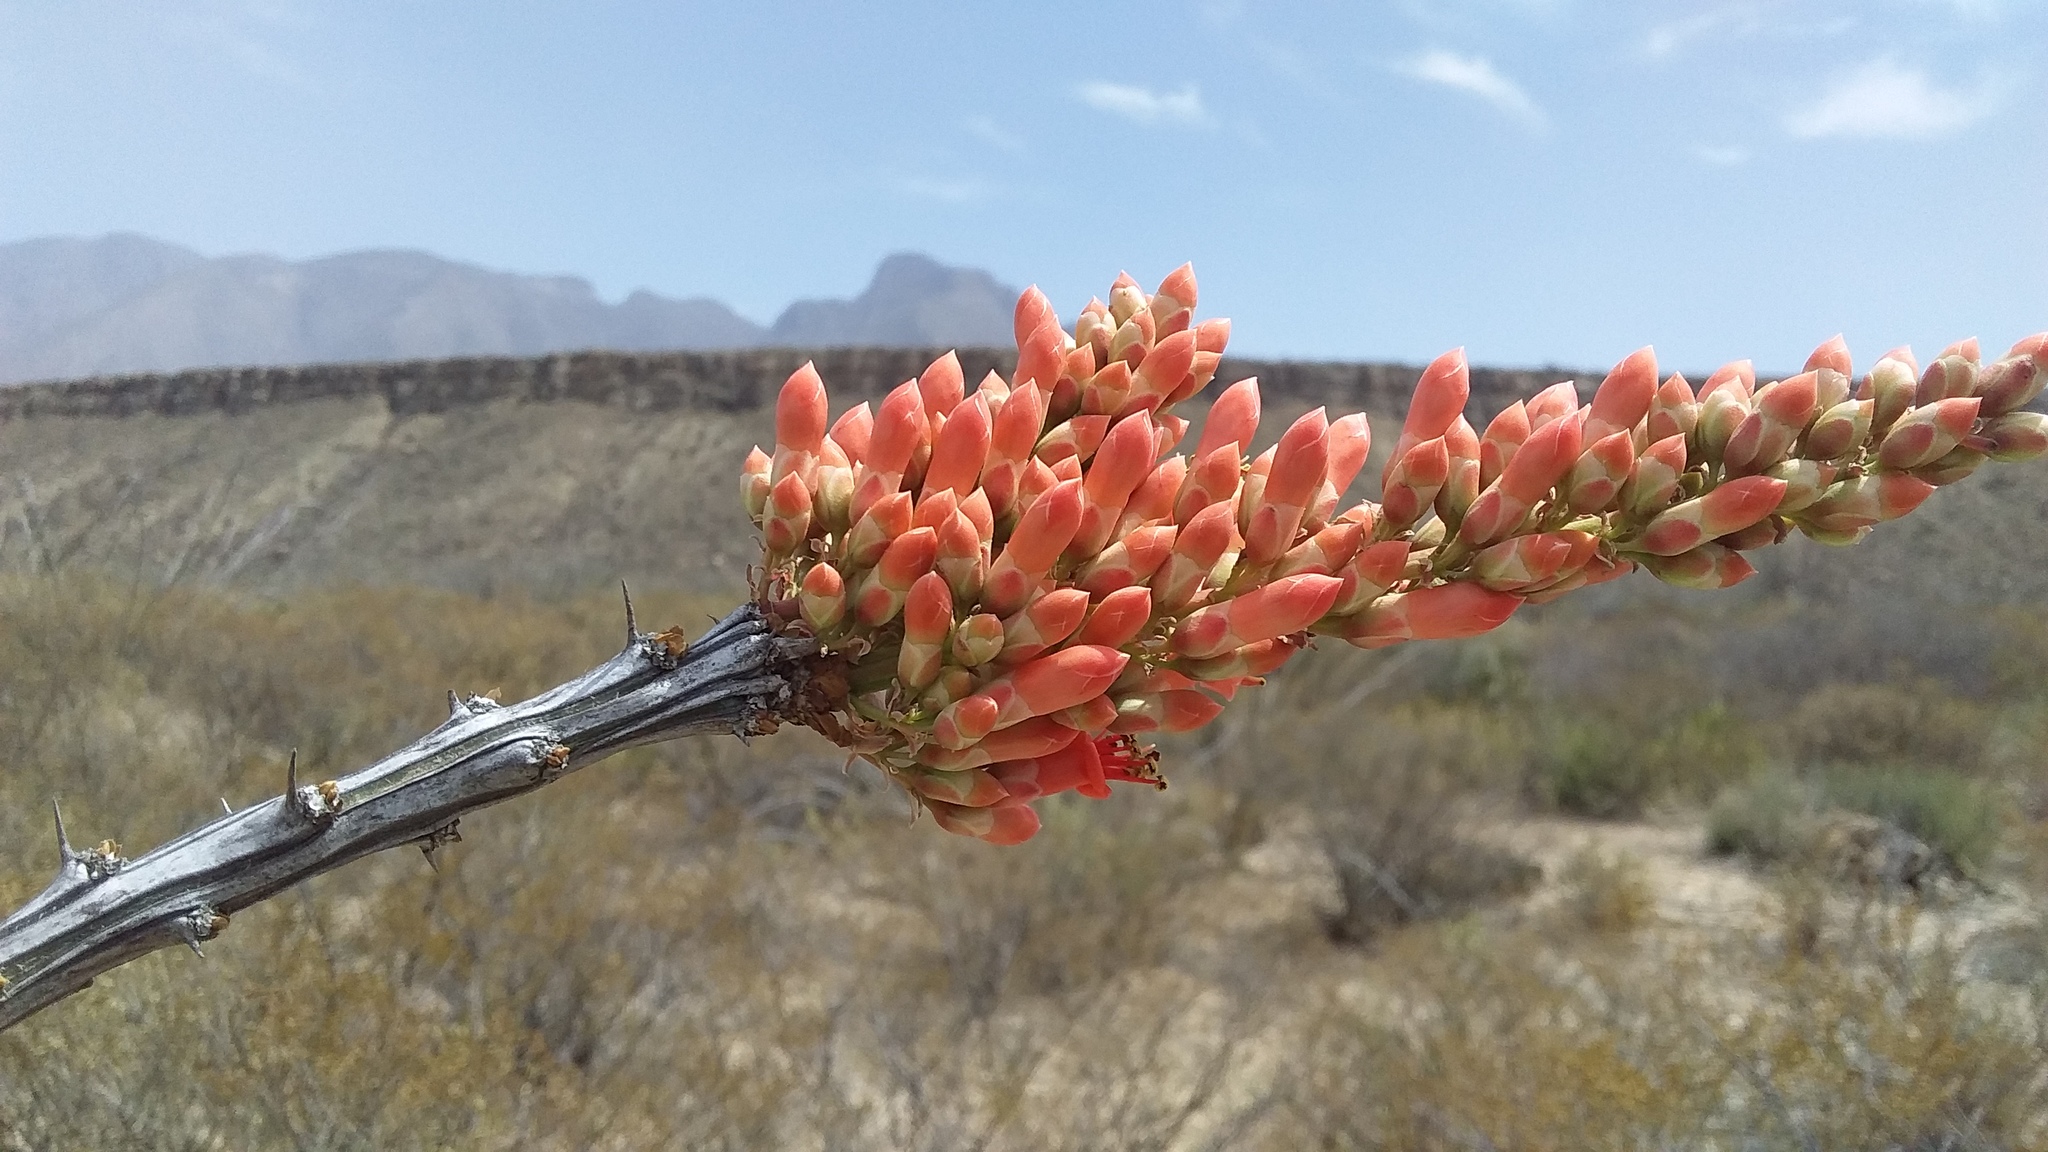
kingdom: Plantae
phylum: Tracheophyta
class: Magnoliopsida
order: Ericales
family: Fouquieriaceae
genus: Fouquieria
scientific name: Fouquieria splendens
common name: Vine-cactus
